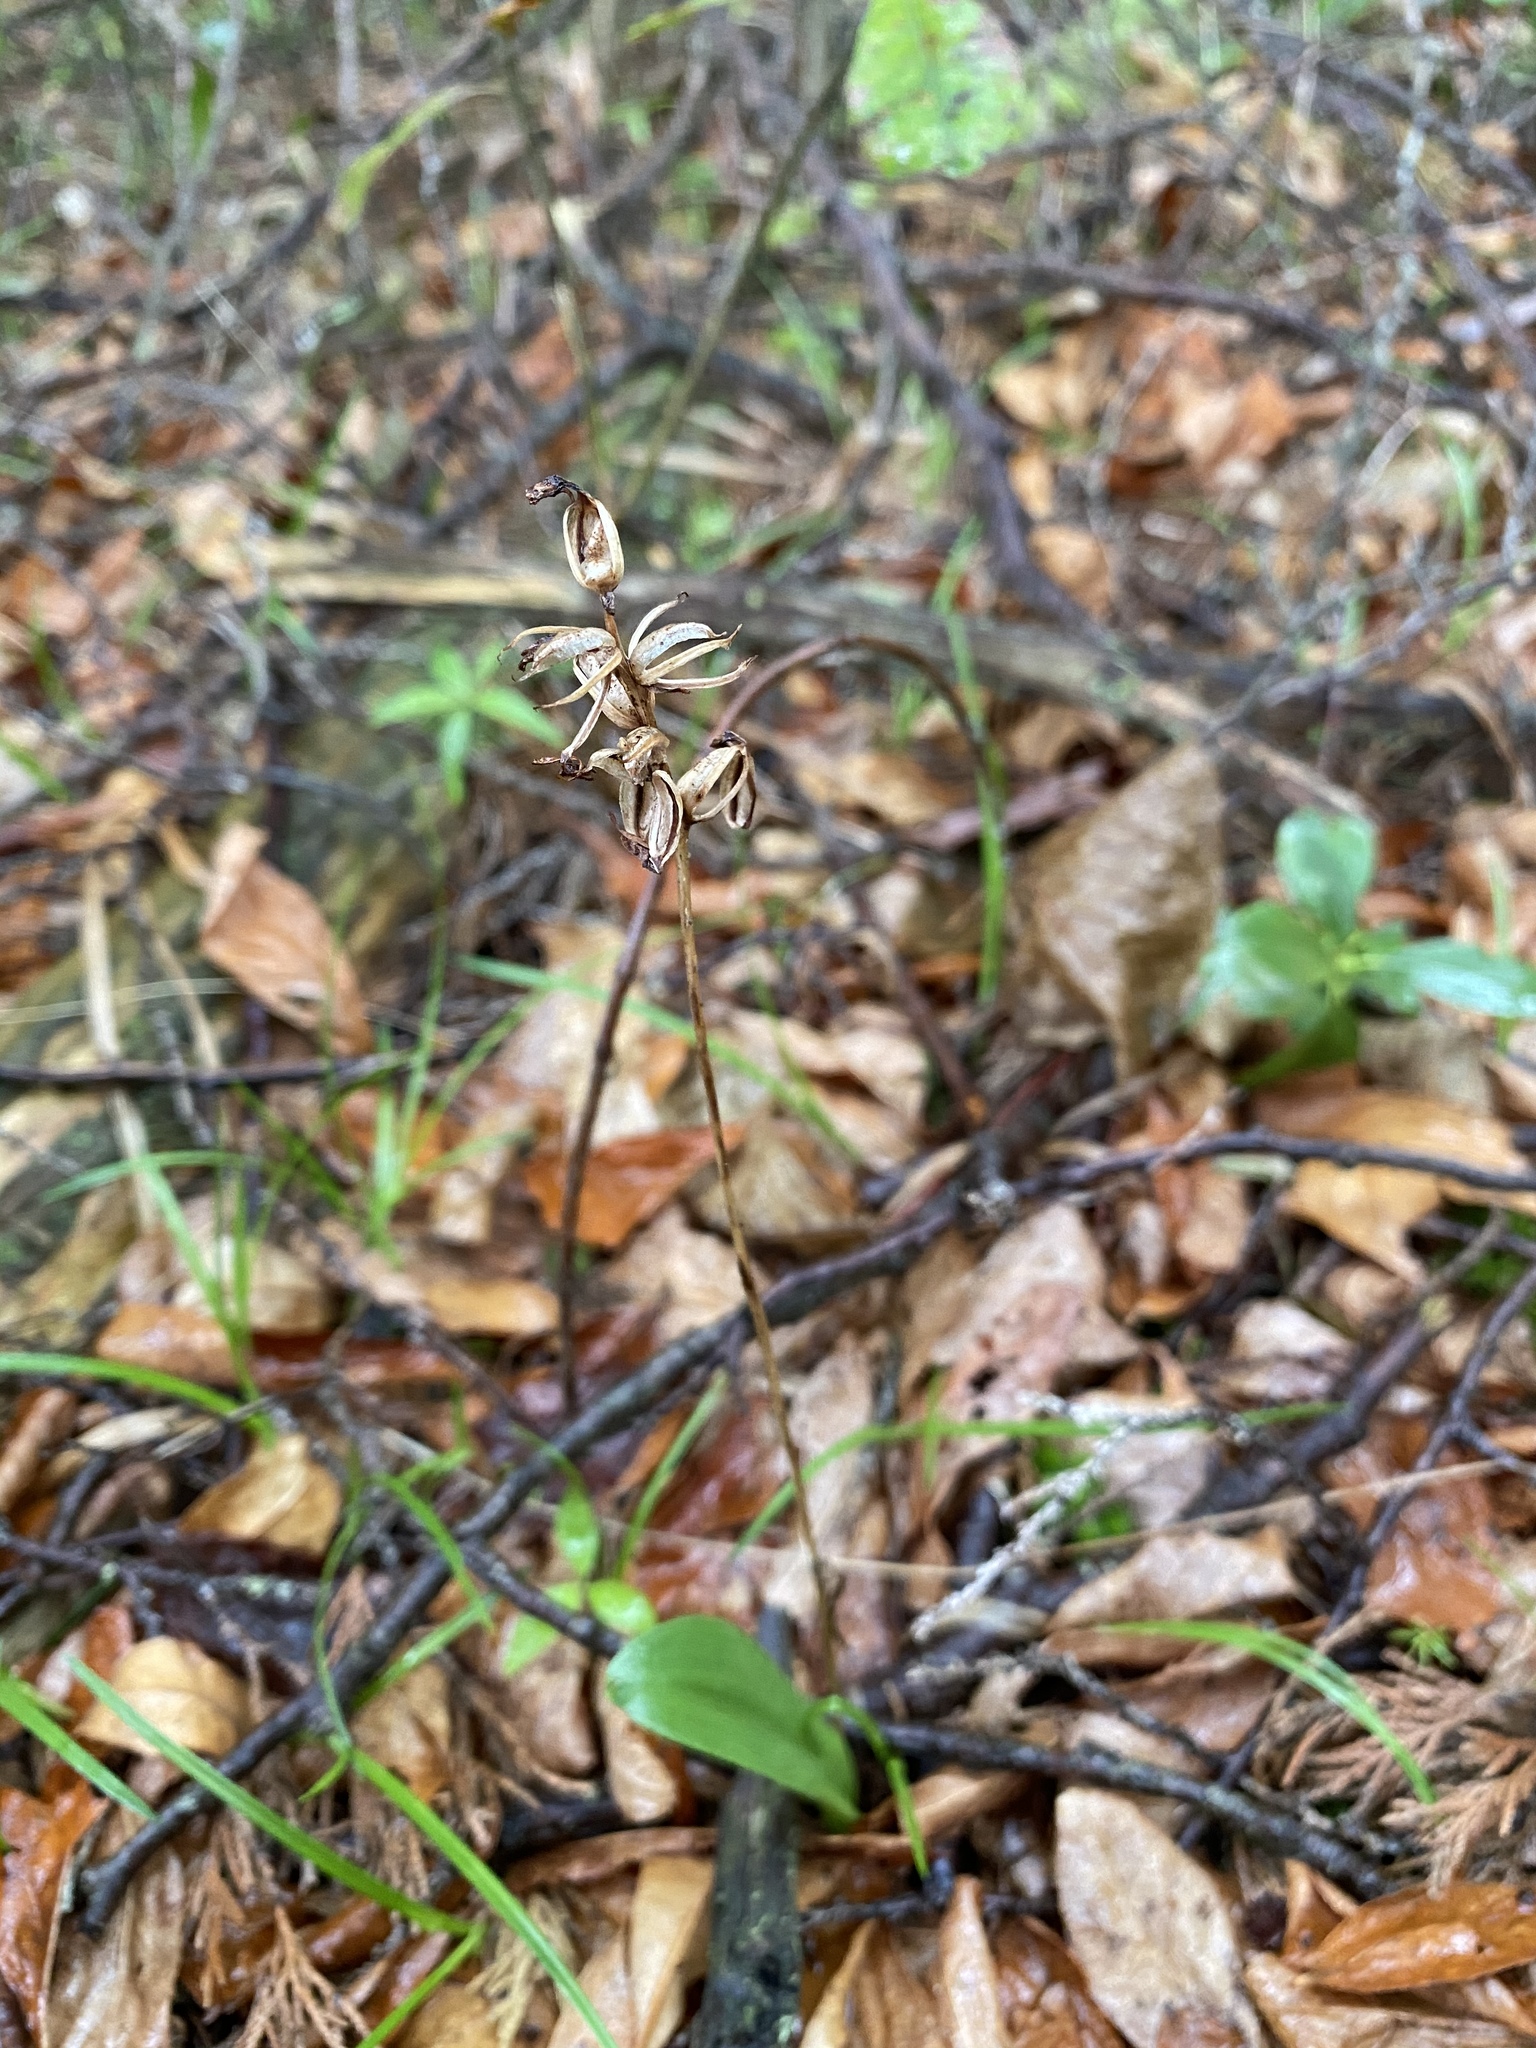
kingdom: Plantae
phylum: Tracheophyta
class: Liliopsida
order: Asparagales
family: Orchidaceae
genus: Platanthera
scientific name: Platanthera clavellata
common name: Club-spur orchid
